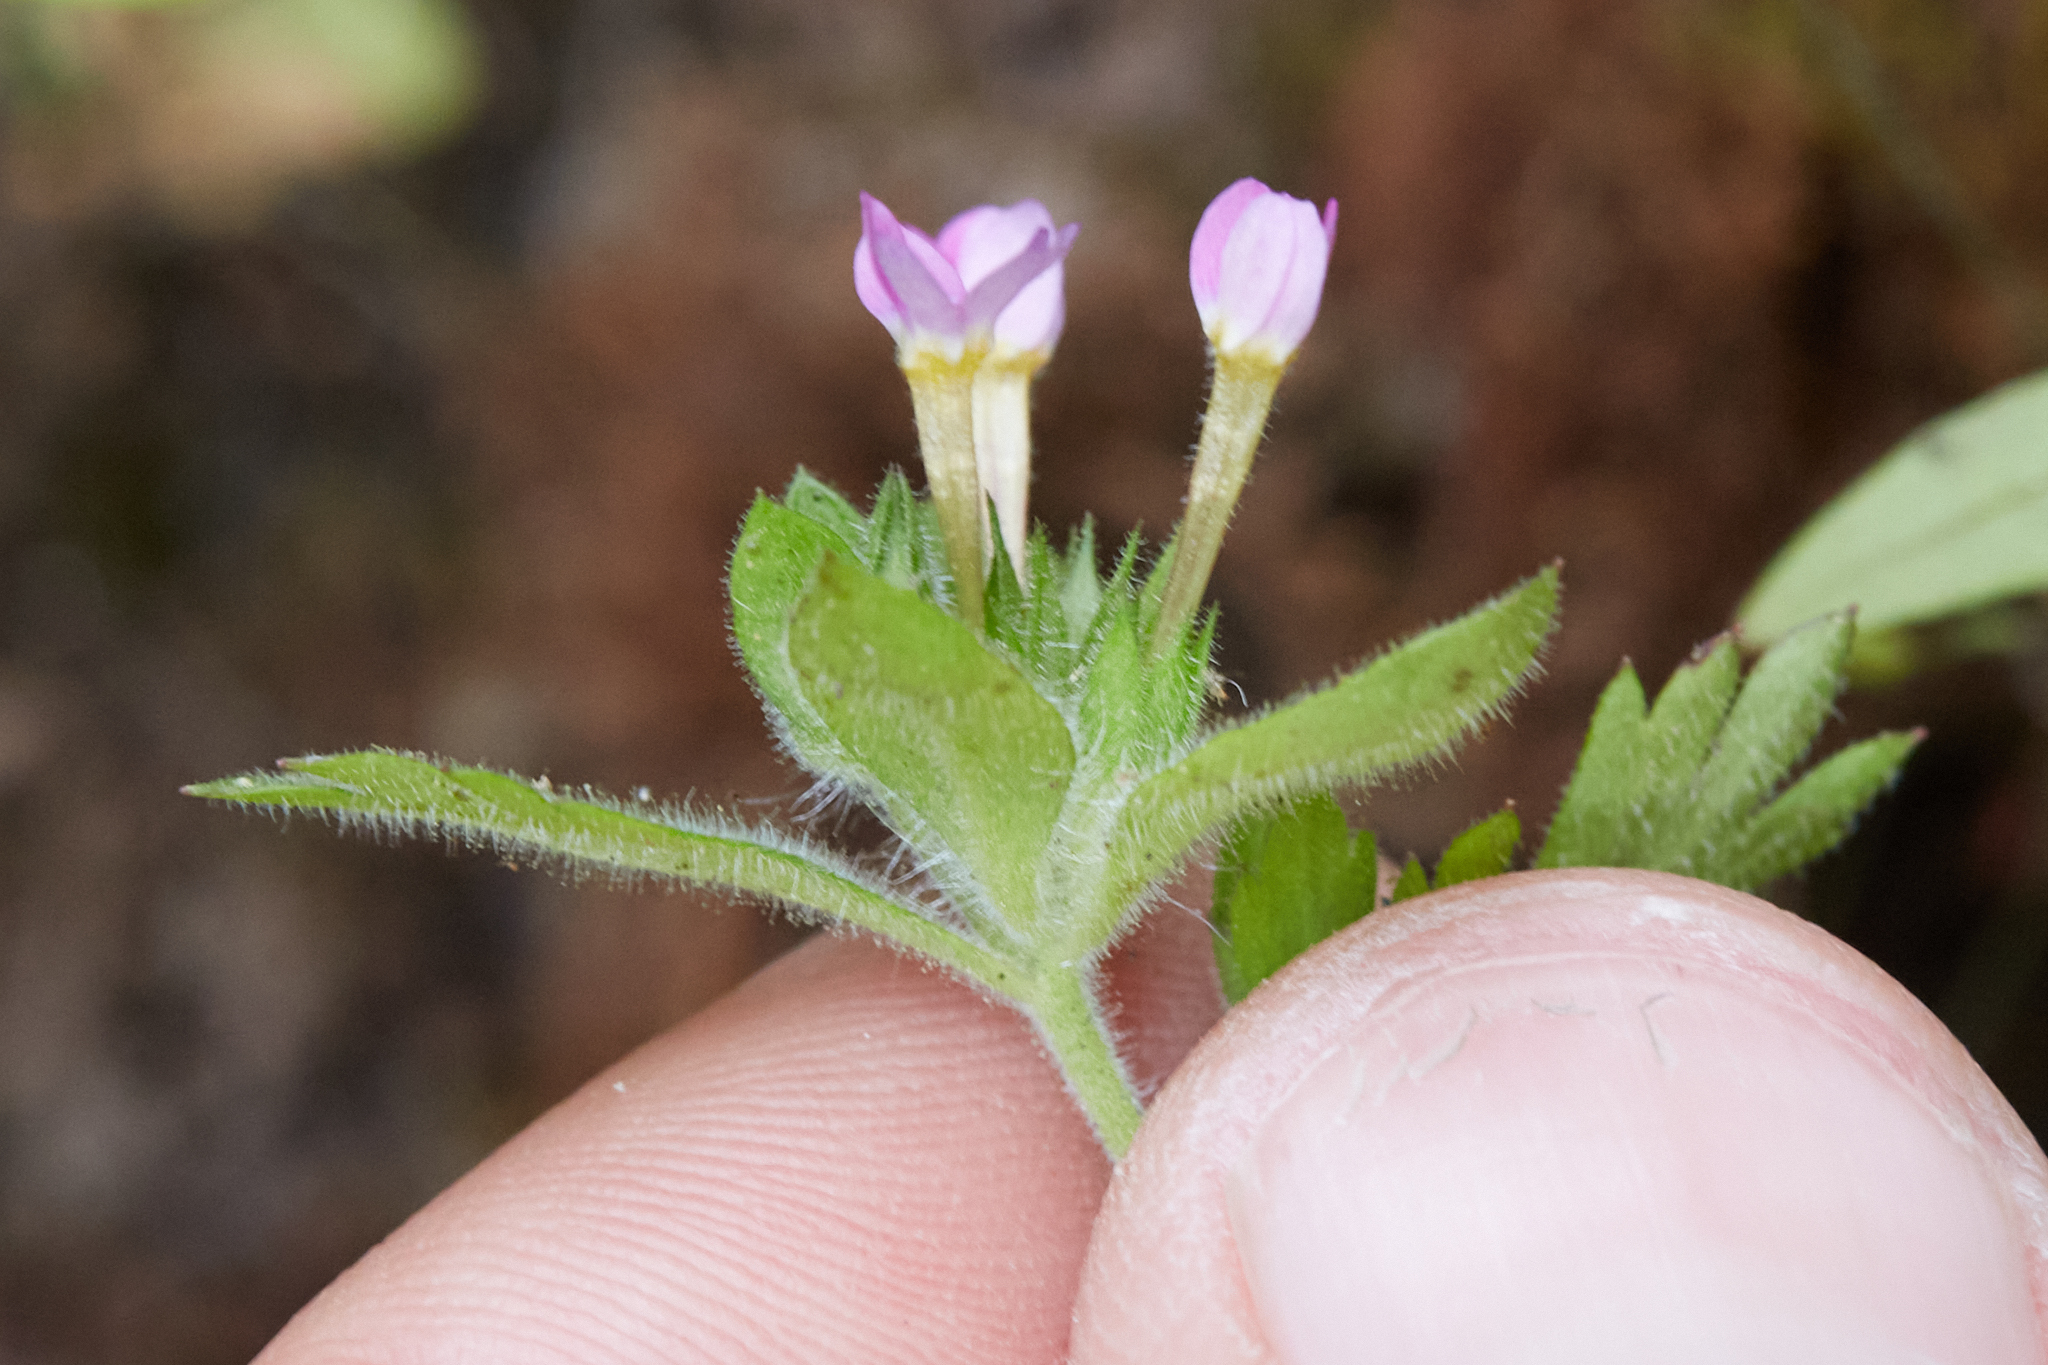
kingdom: Plantae
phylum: Tracheophyta
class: Magnoliopsida
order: Ericales
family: Polemoniaceae
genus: Collomia
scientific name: Collomia heterophylla
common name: Variable-leaved collomia
